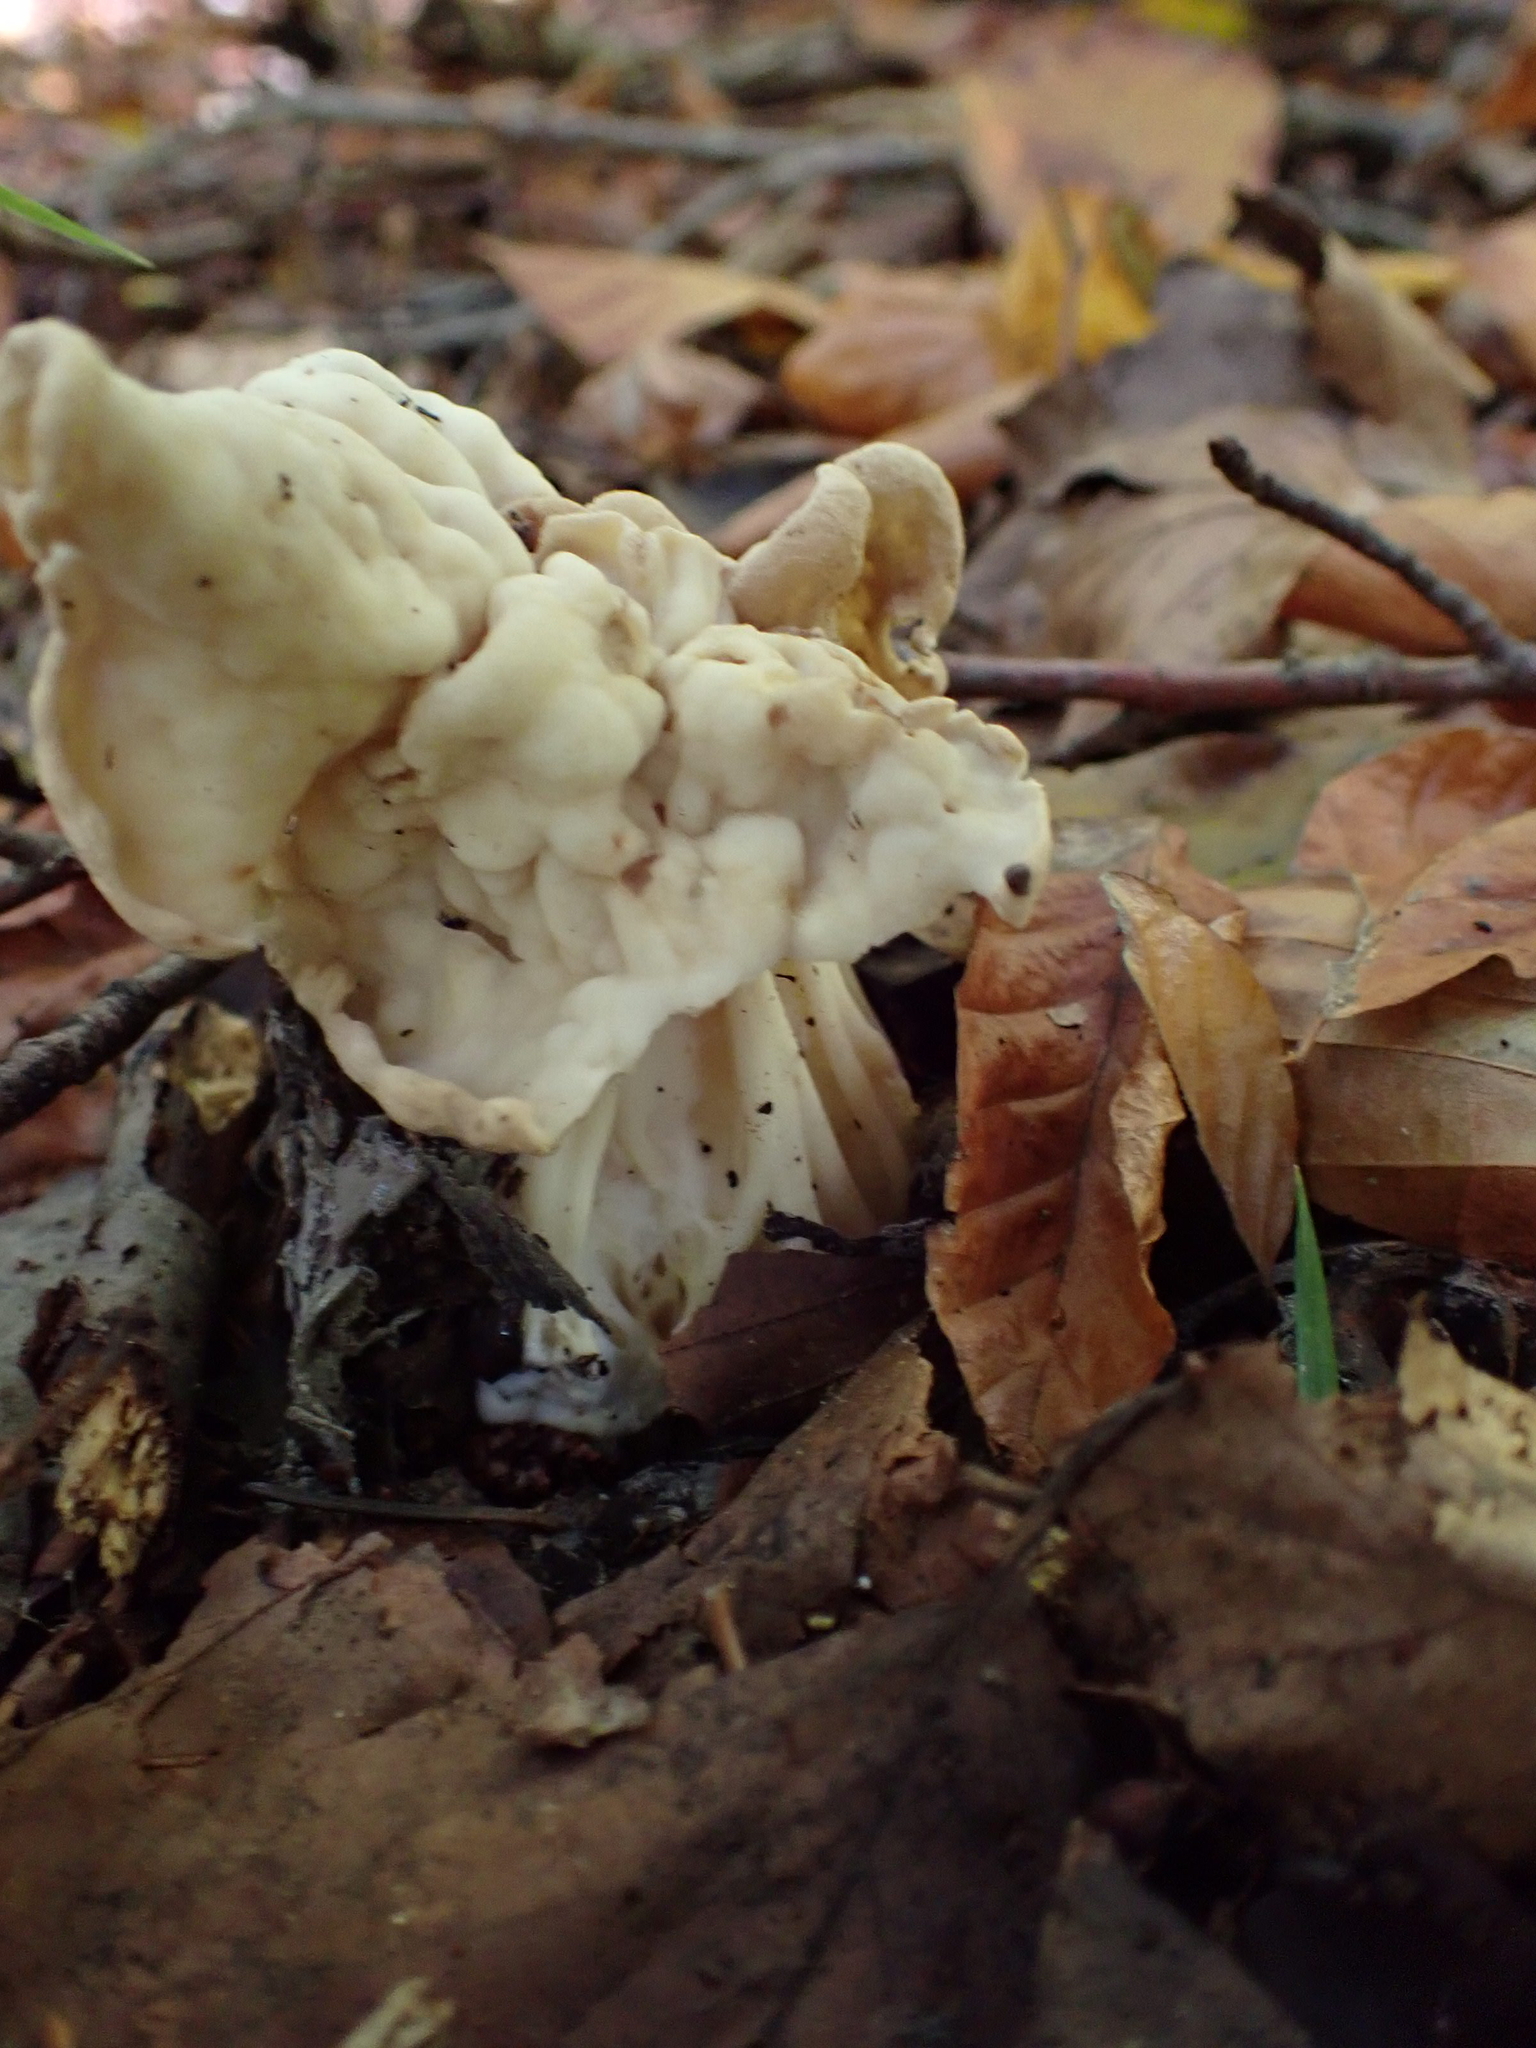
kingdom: Fungi
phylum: Ascomycota
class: Pezizomycetes
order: Pezizales
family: Helvellaceae
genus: Helvella
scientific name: Helvella crispa
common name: White saddle
